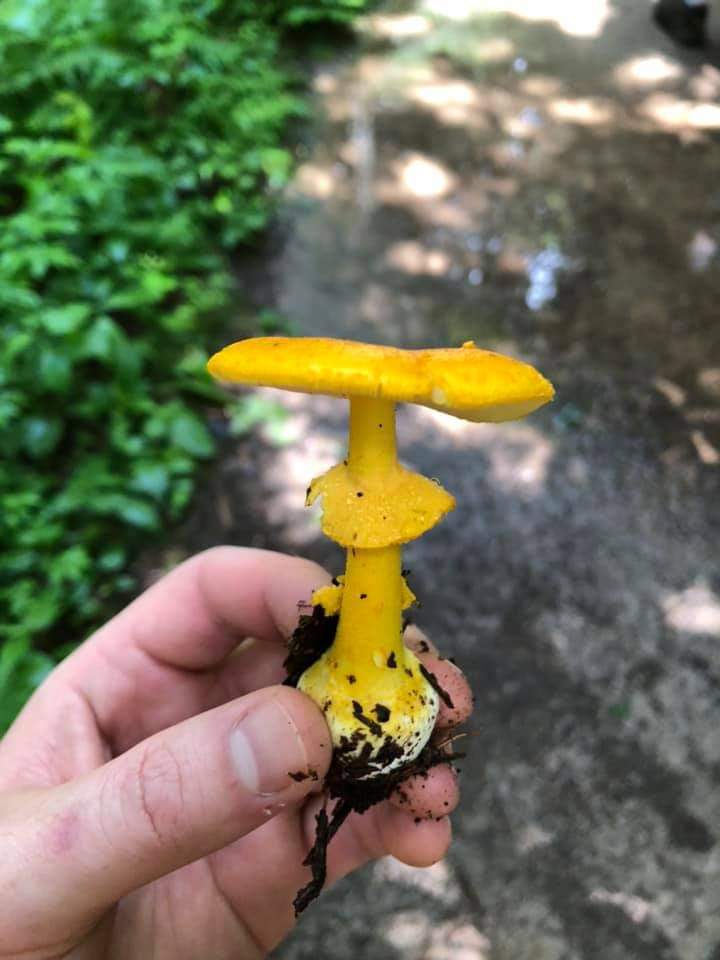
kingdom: Fungi
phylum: Basidiomycota
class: Agaricomycetes
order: Agaricales
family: Amanitaceae
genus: Amanita
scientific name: Amanita flavoconia
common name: Yellow patches
